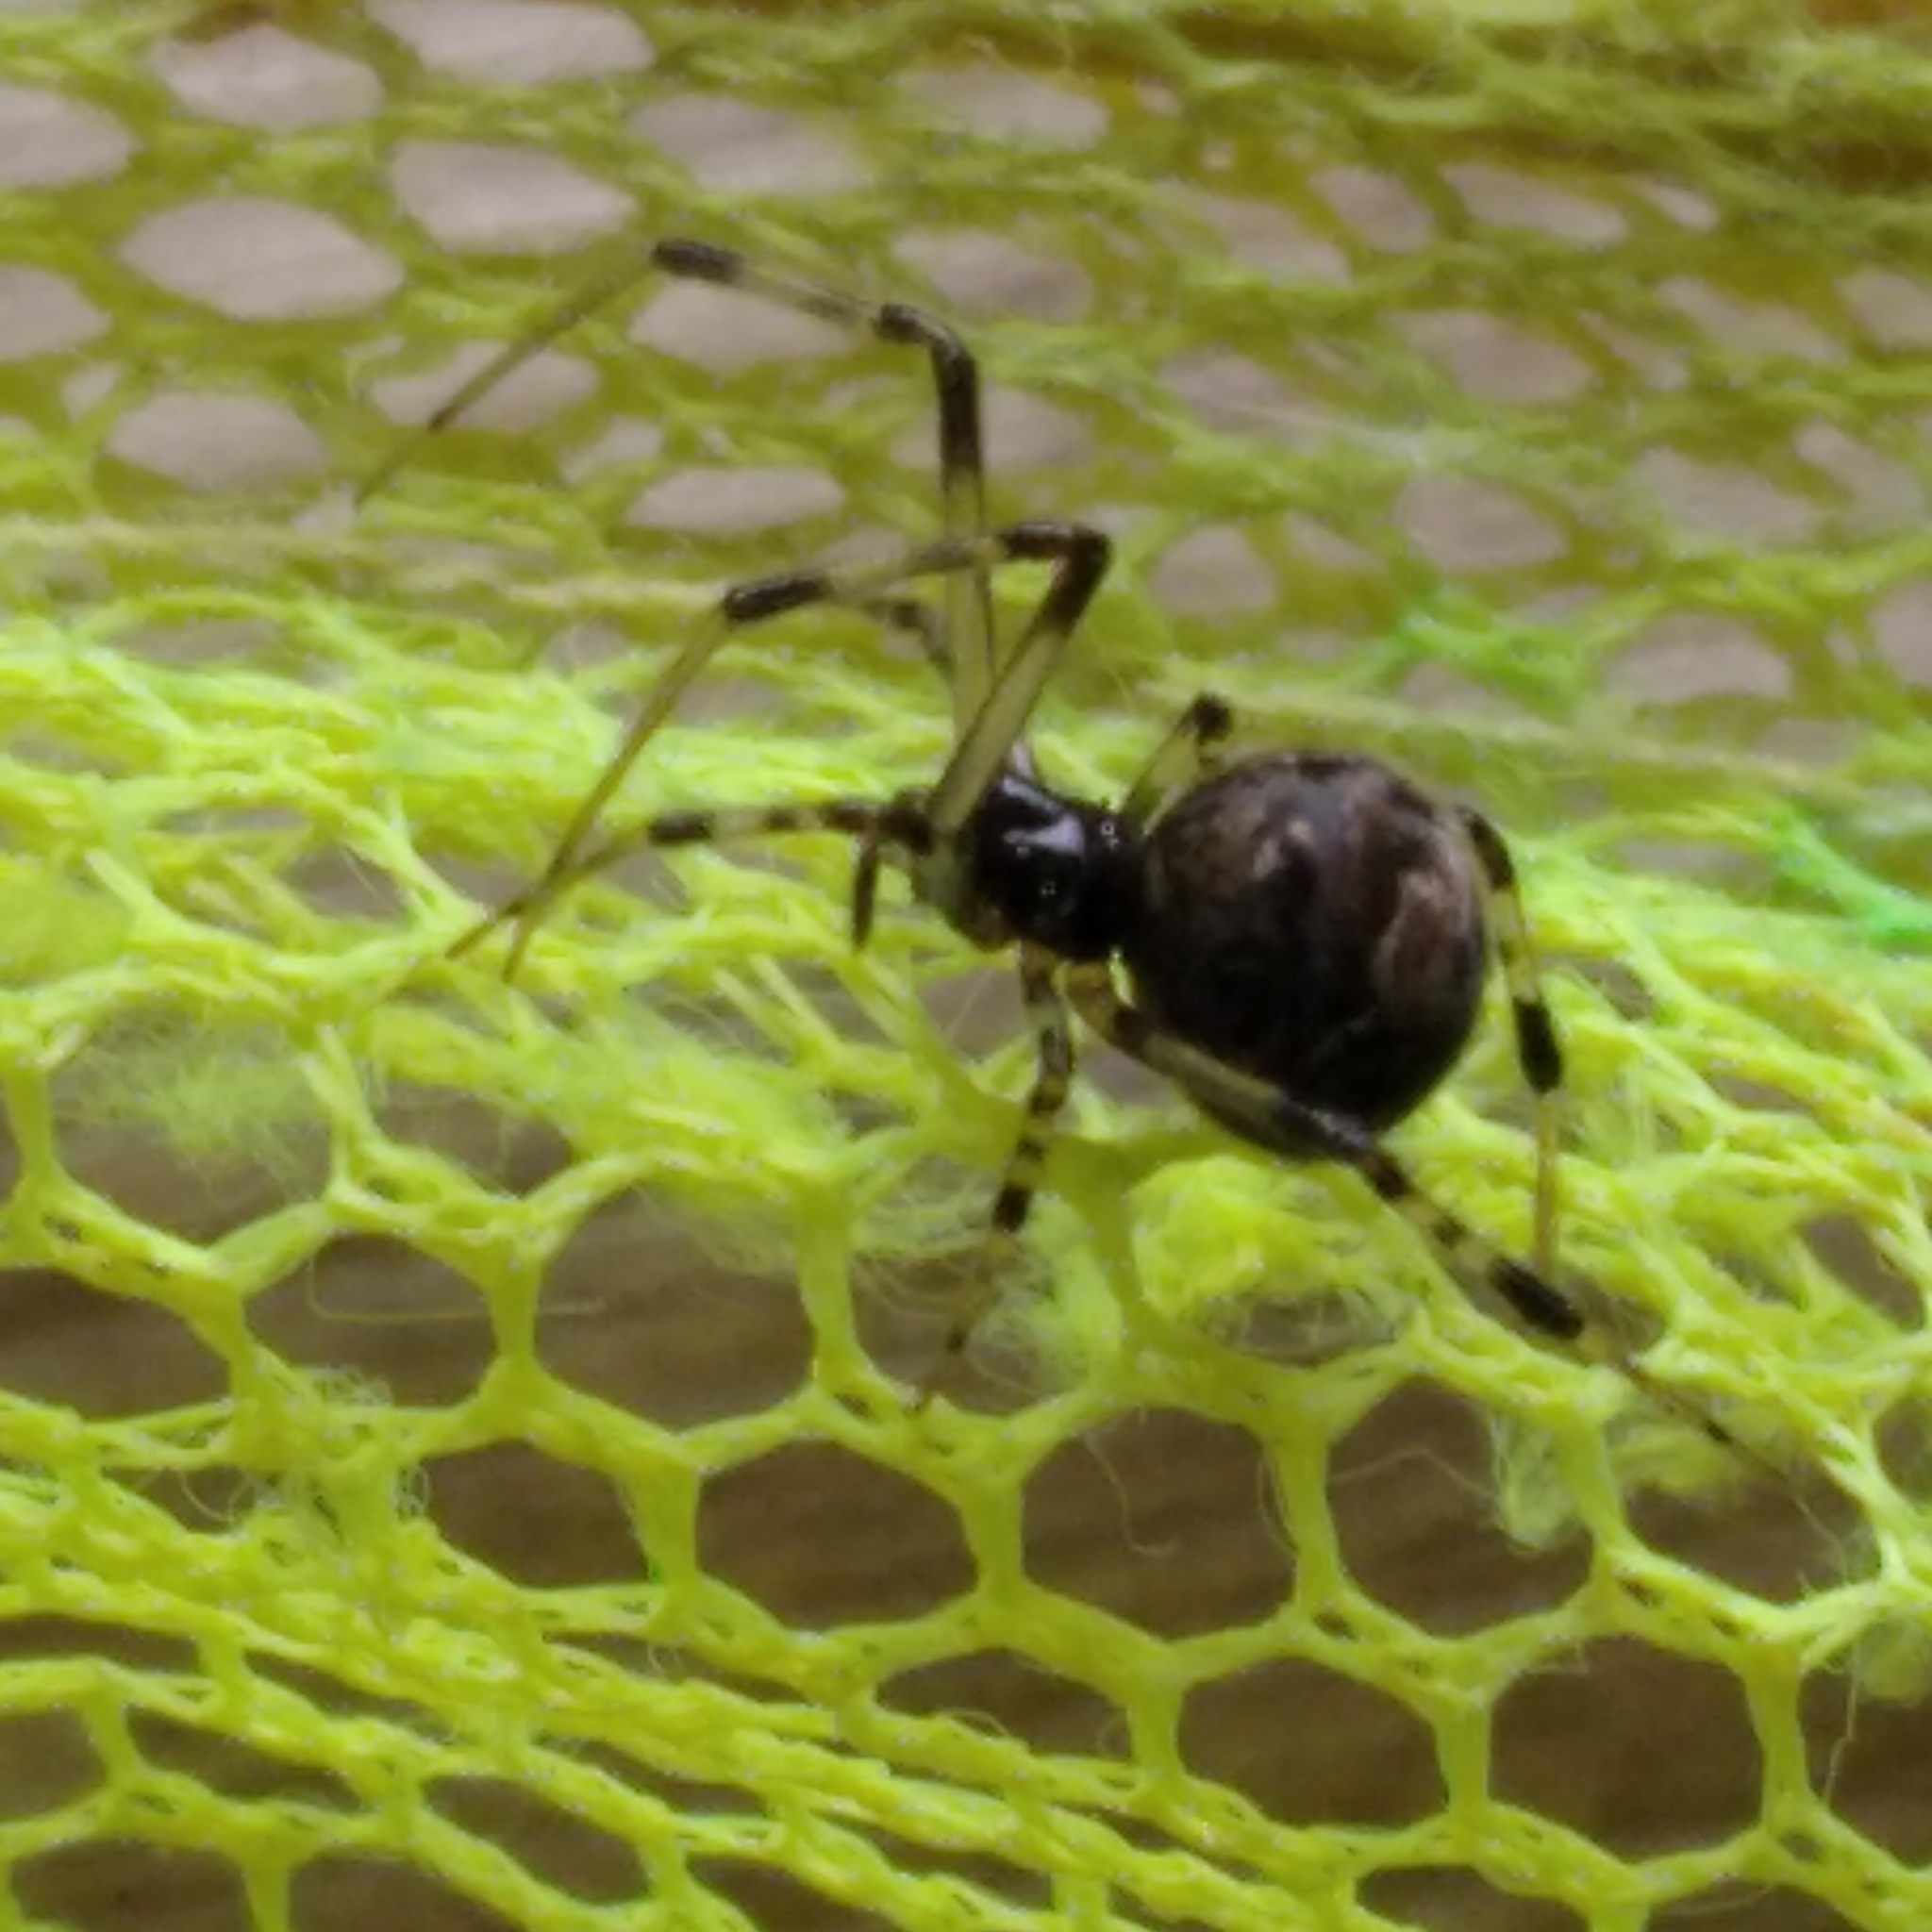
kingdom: Animalia
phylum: Arthropoda
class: Arachnida
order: Araneae
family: Theridiidae
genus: Parasteatoda
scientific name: Parasteatoda tabulata
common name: Comb-footed spider
